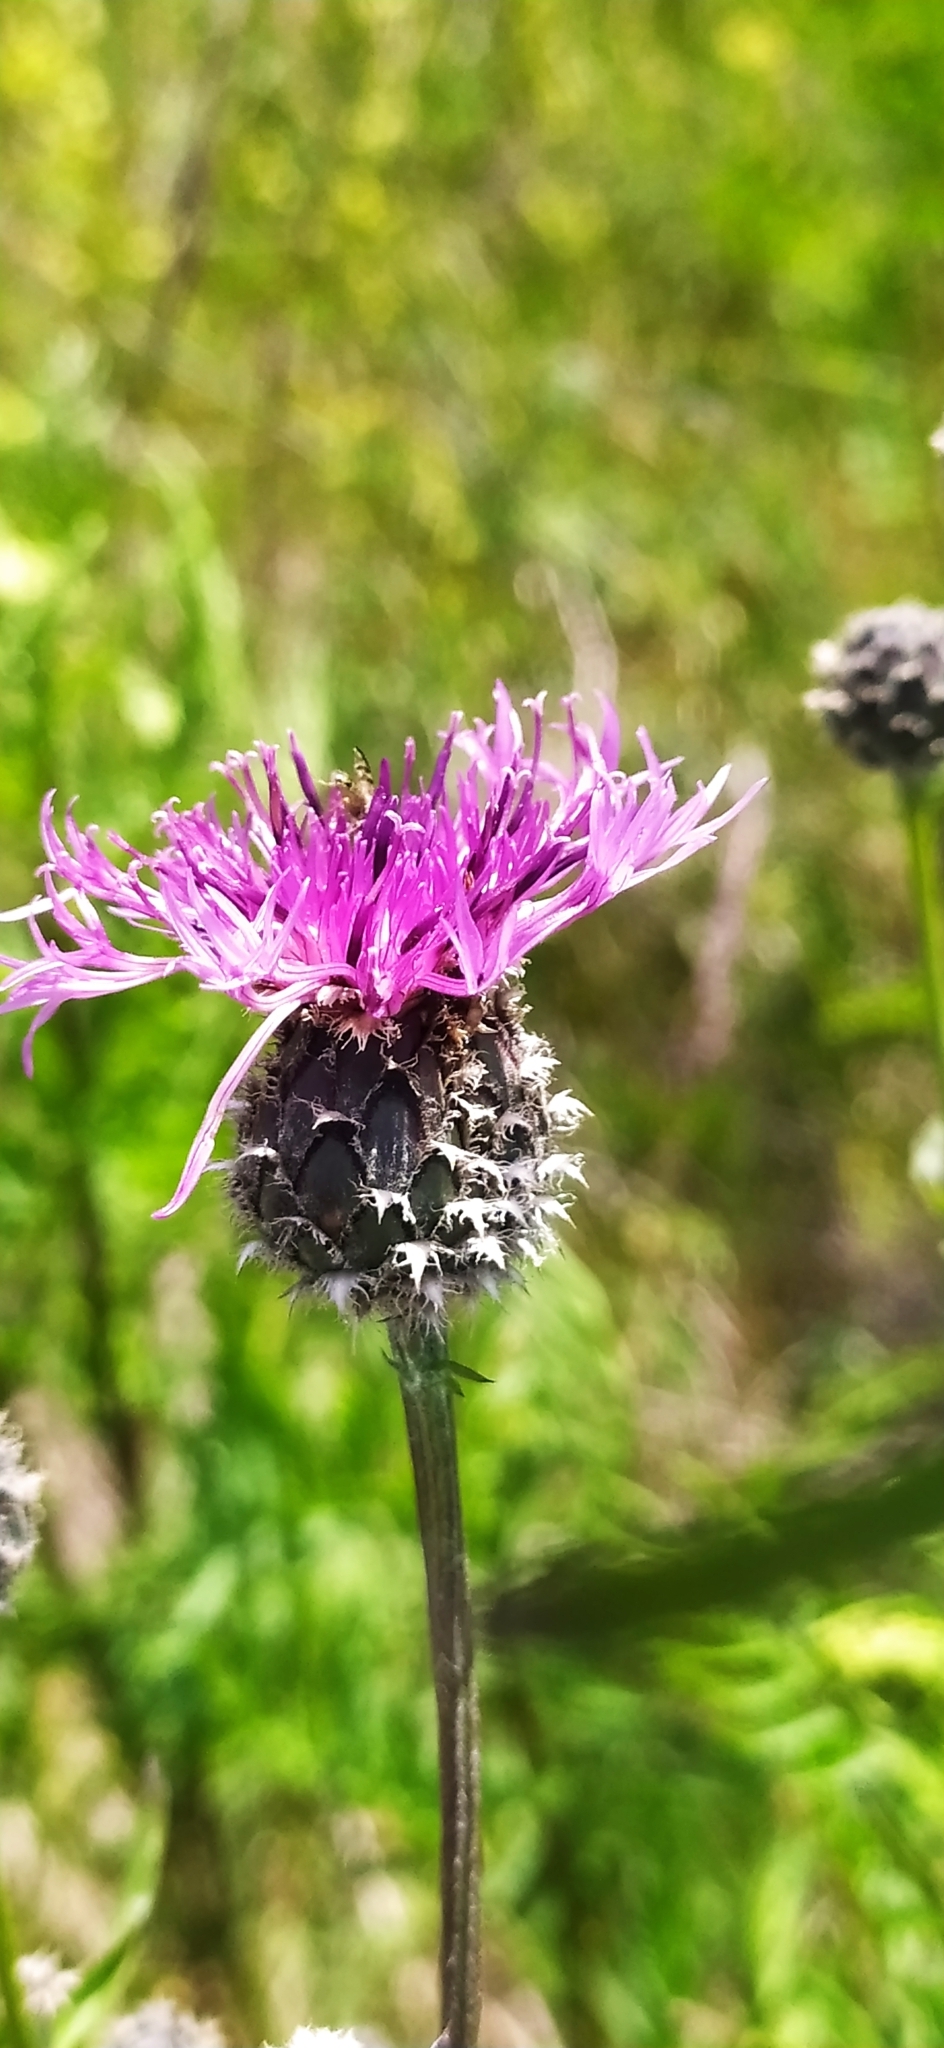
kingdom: Plantae
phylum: Tracheophyta
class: Magnoliopsida
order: Asterales
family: Asteraceae
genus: Centaurea
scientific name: Centaurea scabiosa
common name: Greater knapweed
